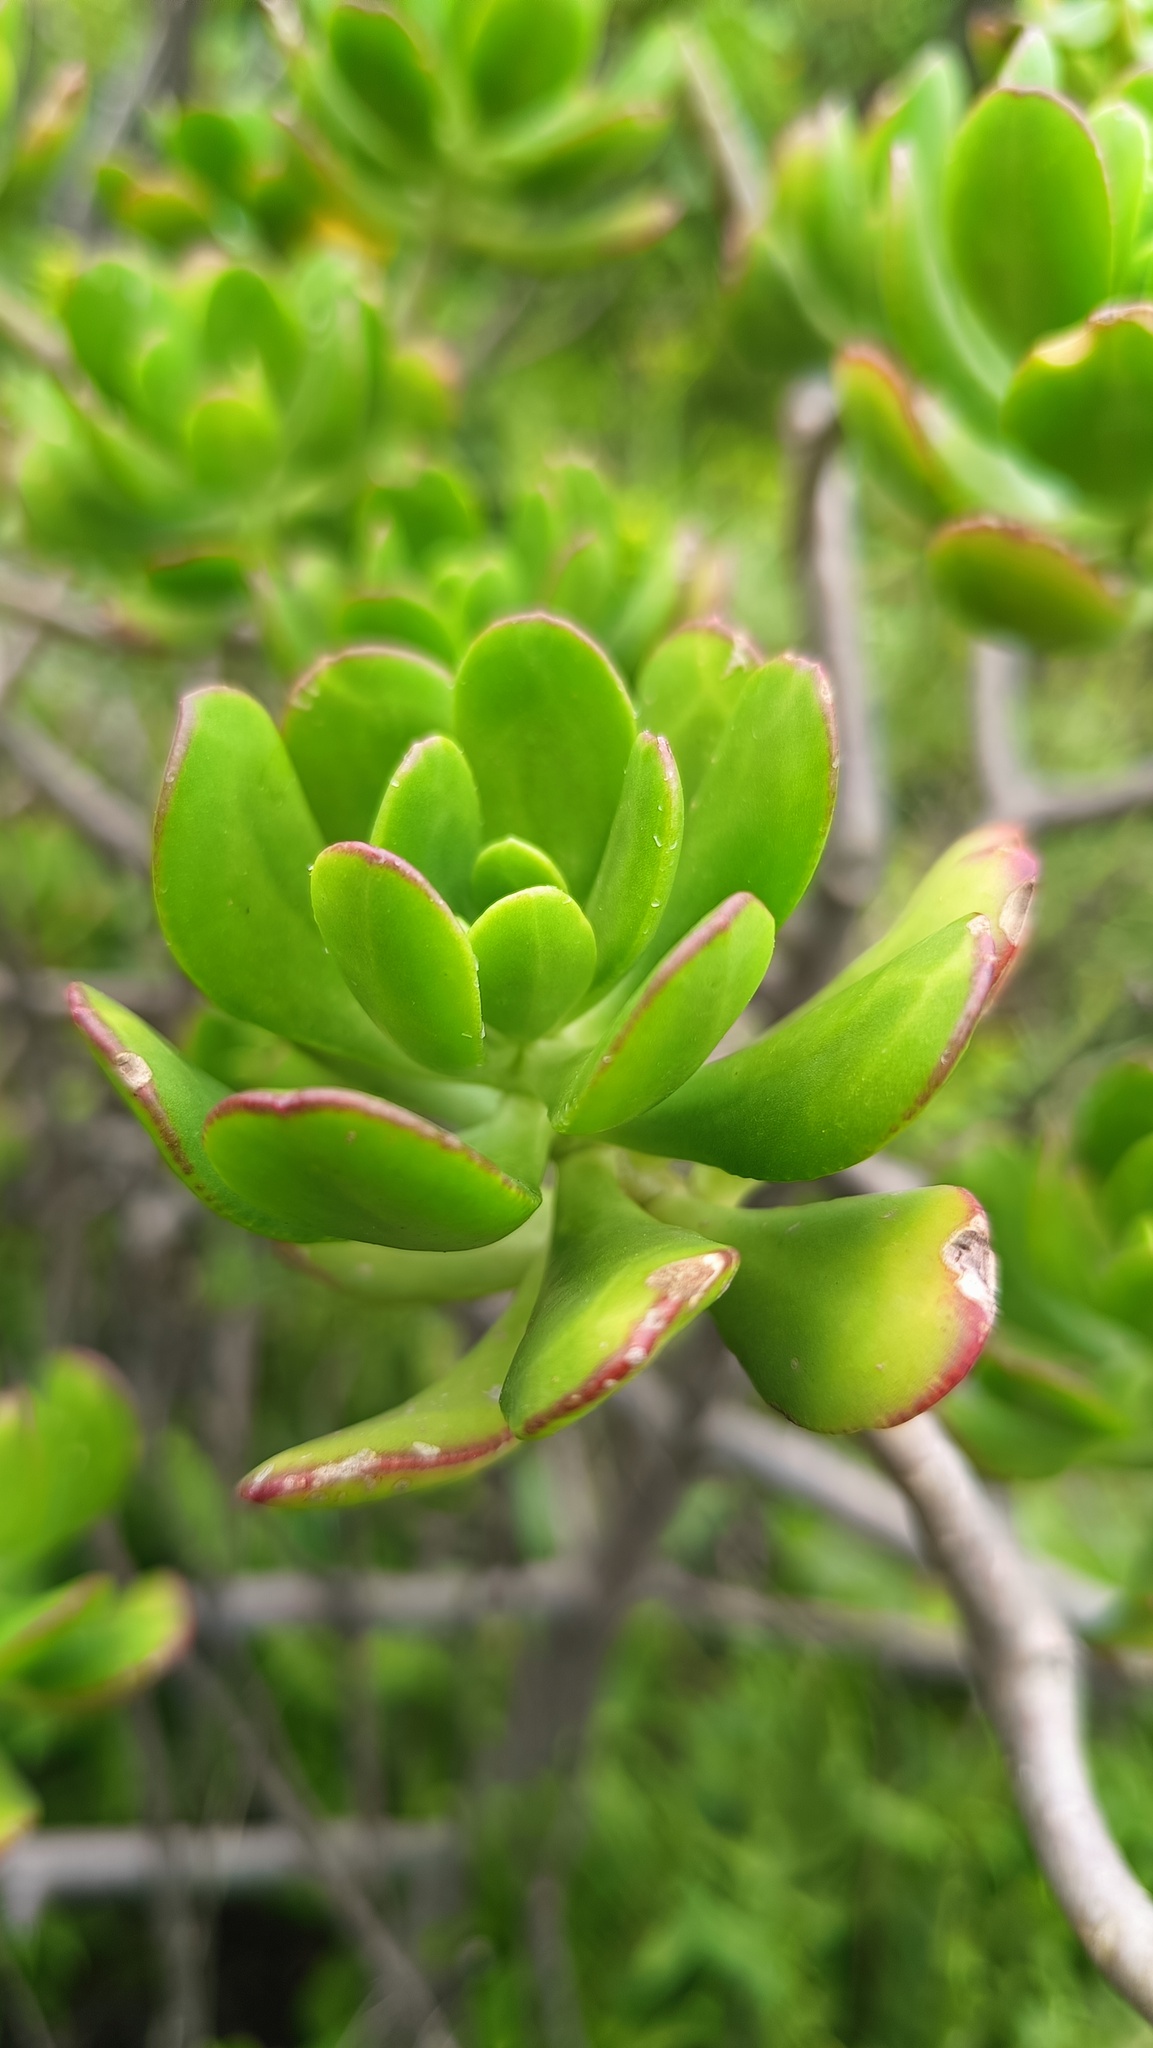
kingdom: Plantae
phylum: Tracheophyta
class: Magnoliopsida
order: Saxifragales
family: Crassulaceae
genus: Sedum
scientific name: Sedum dendroideum
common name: Tree stonecrop
